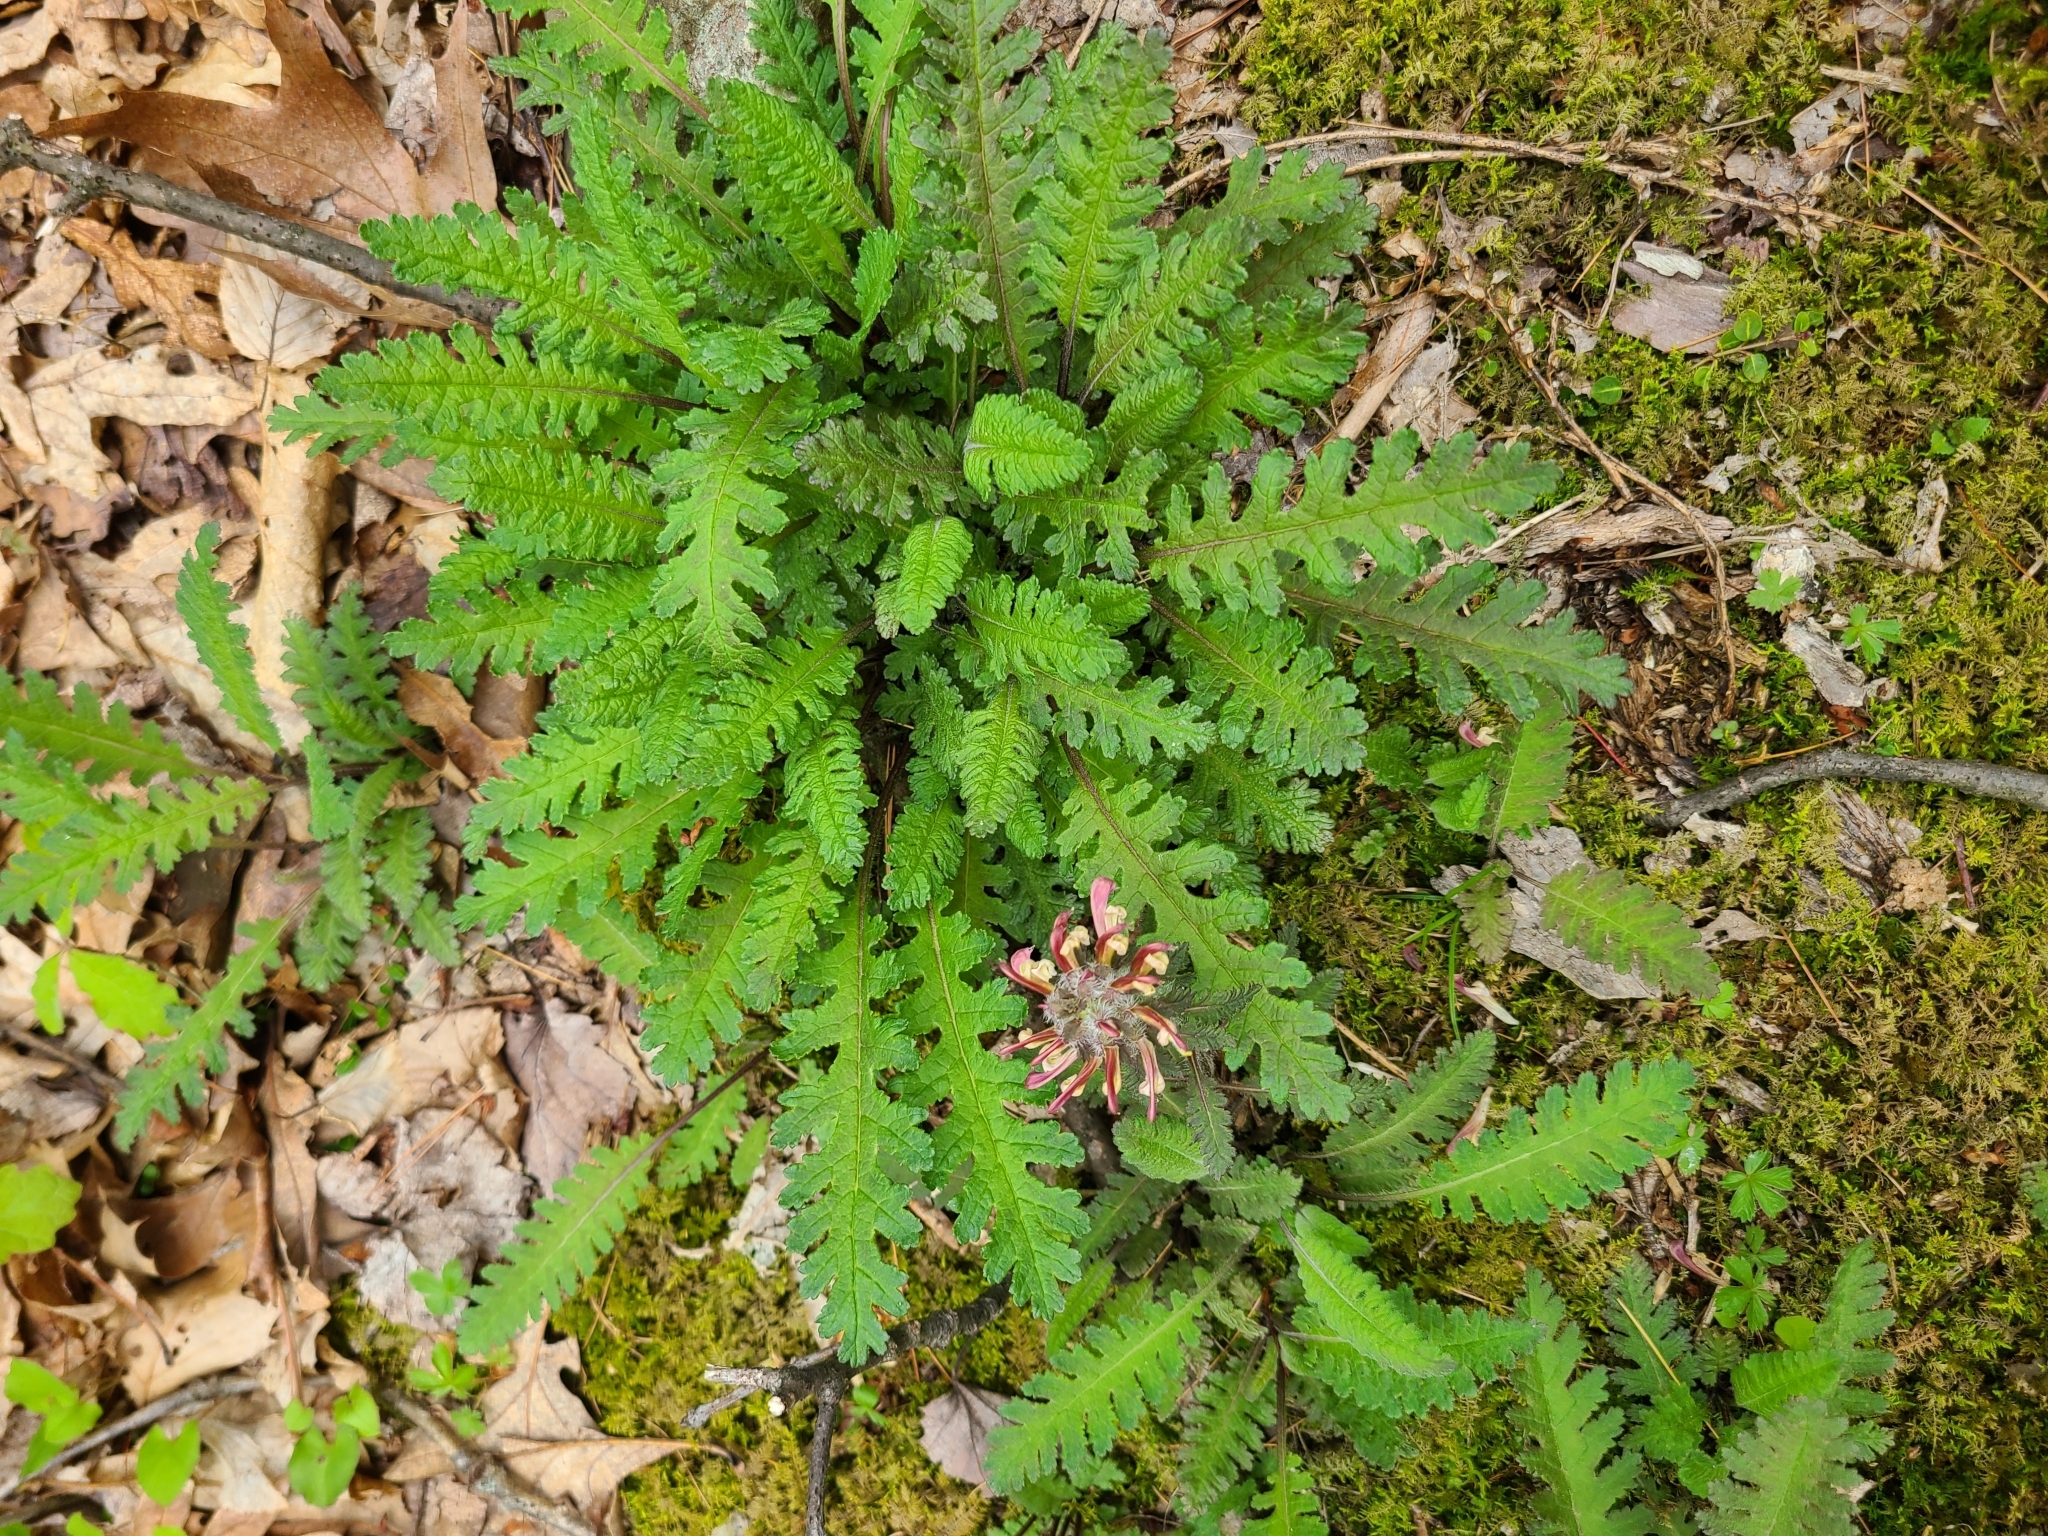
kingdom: Plantae
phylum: Tracheophyta
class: Magnoliopsida
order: Lamiales
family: Orobanchaceae
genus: Pedicularis
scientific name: Pedicularis canadensis
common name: Early lousewort
